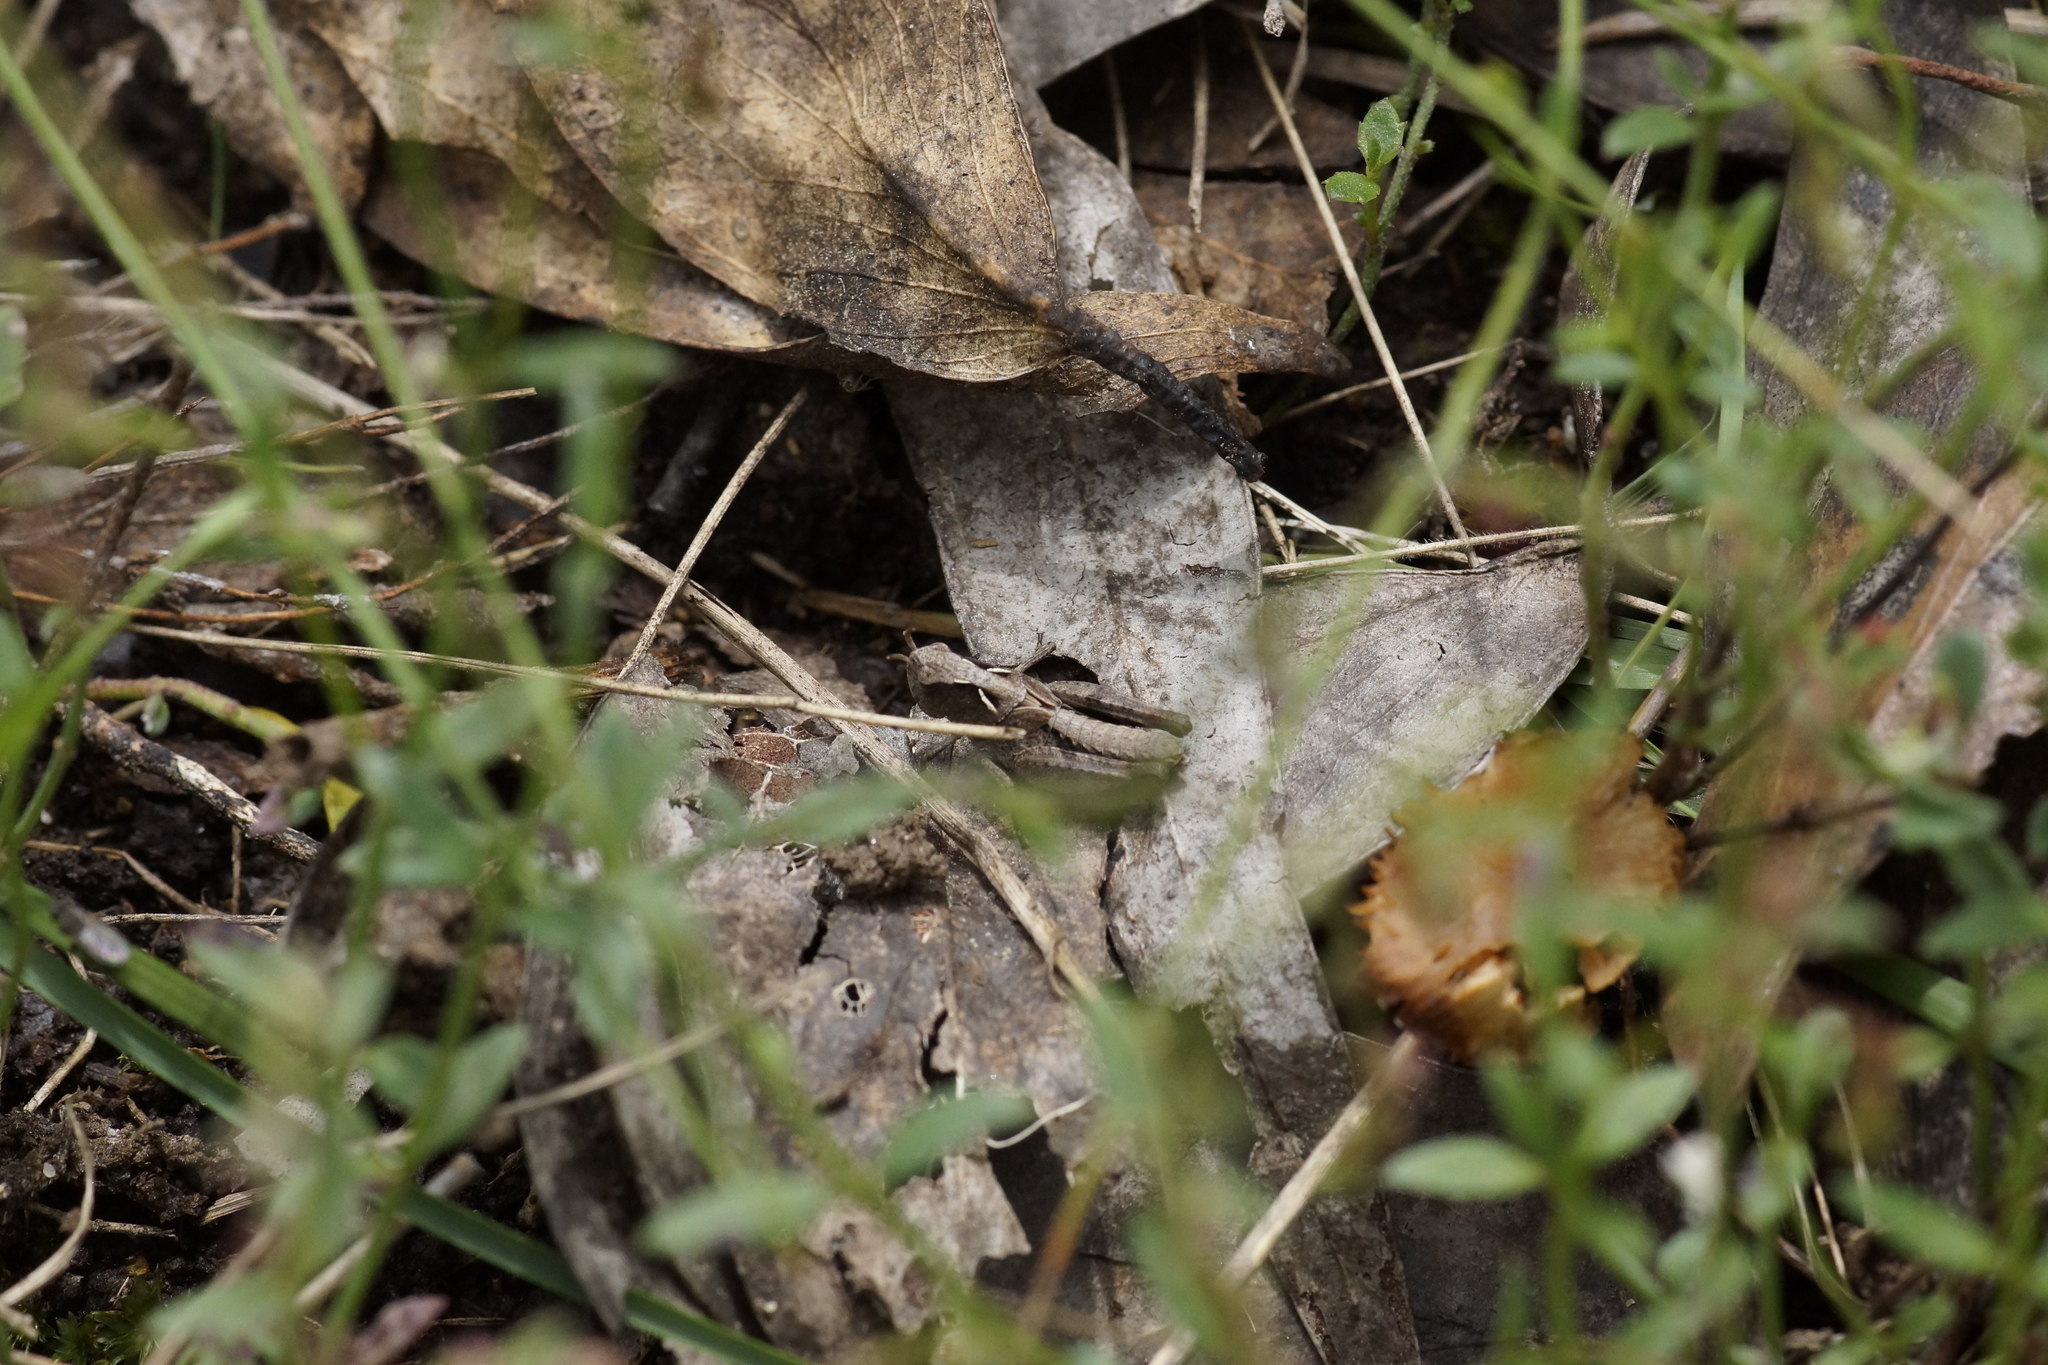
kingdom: Animalia
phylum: Arthropoda
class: Insecta
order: Orthoptera
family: Acrididae
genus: Cryptobothrus
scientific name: Cryptobothrus chrysophorus
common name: Golden bandwing
